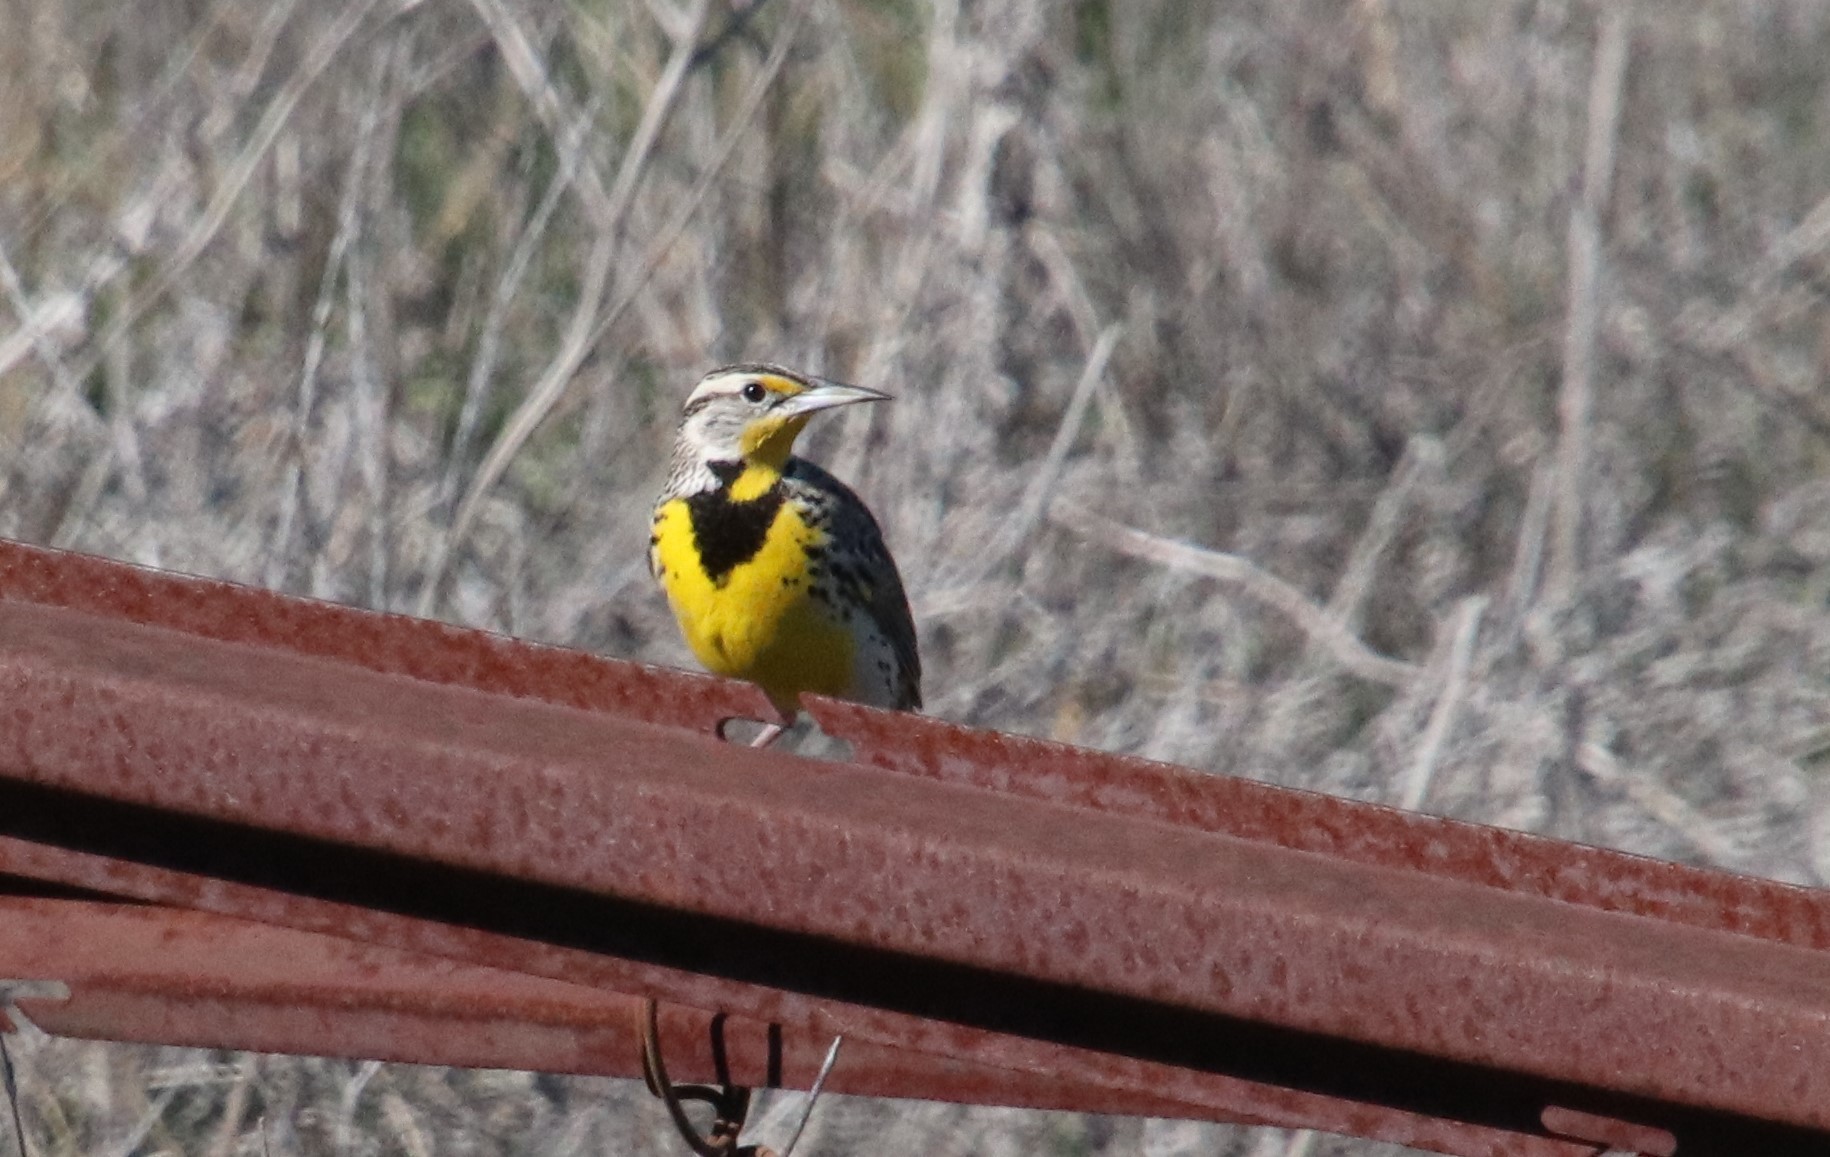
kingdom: Animalia
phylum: Chordata
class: Aves
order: Passeriformes
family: Icteridae
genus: Sturnella
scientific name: Sturnella neglecta
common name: Western meadowlark
